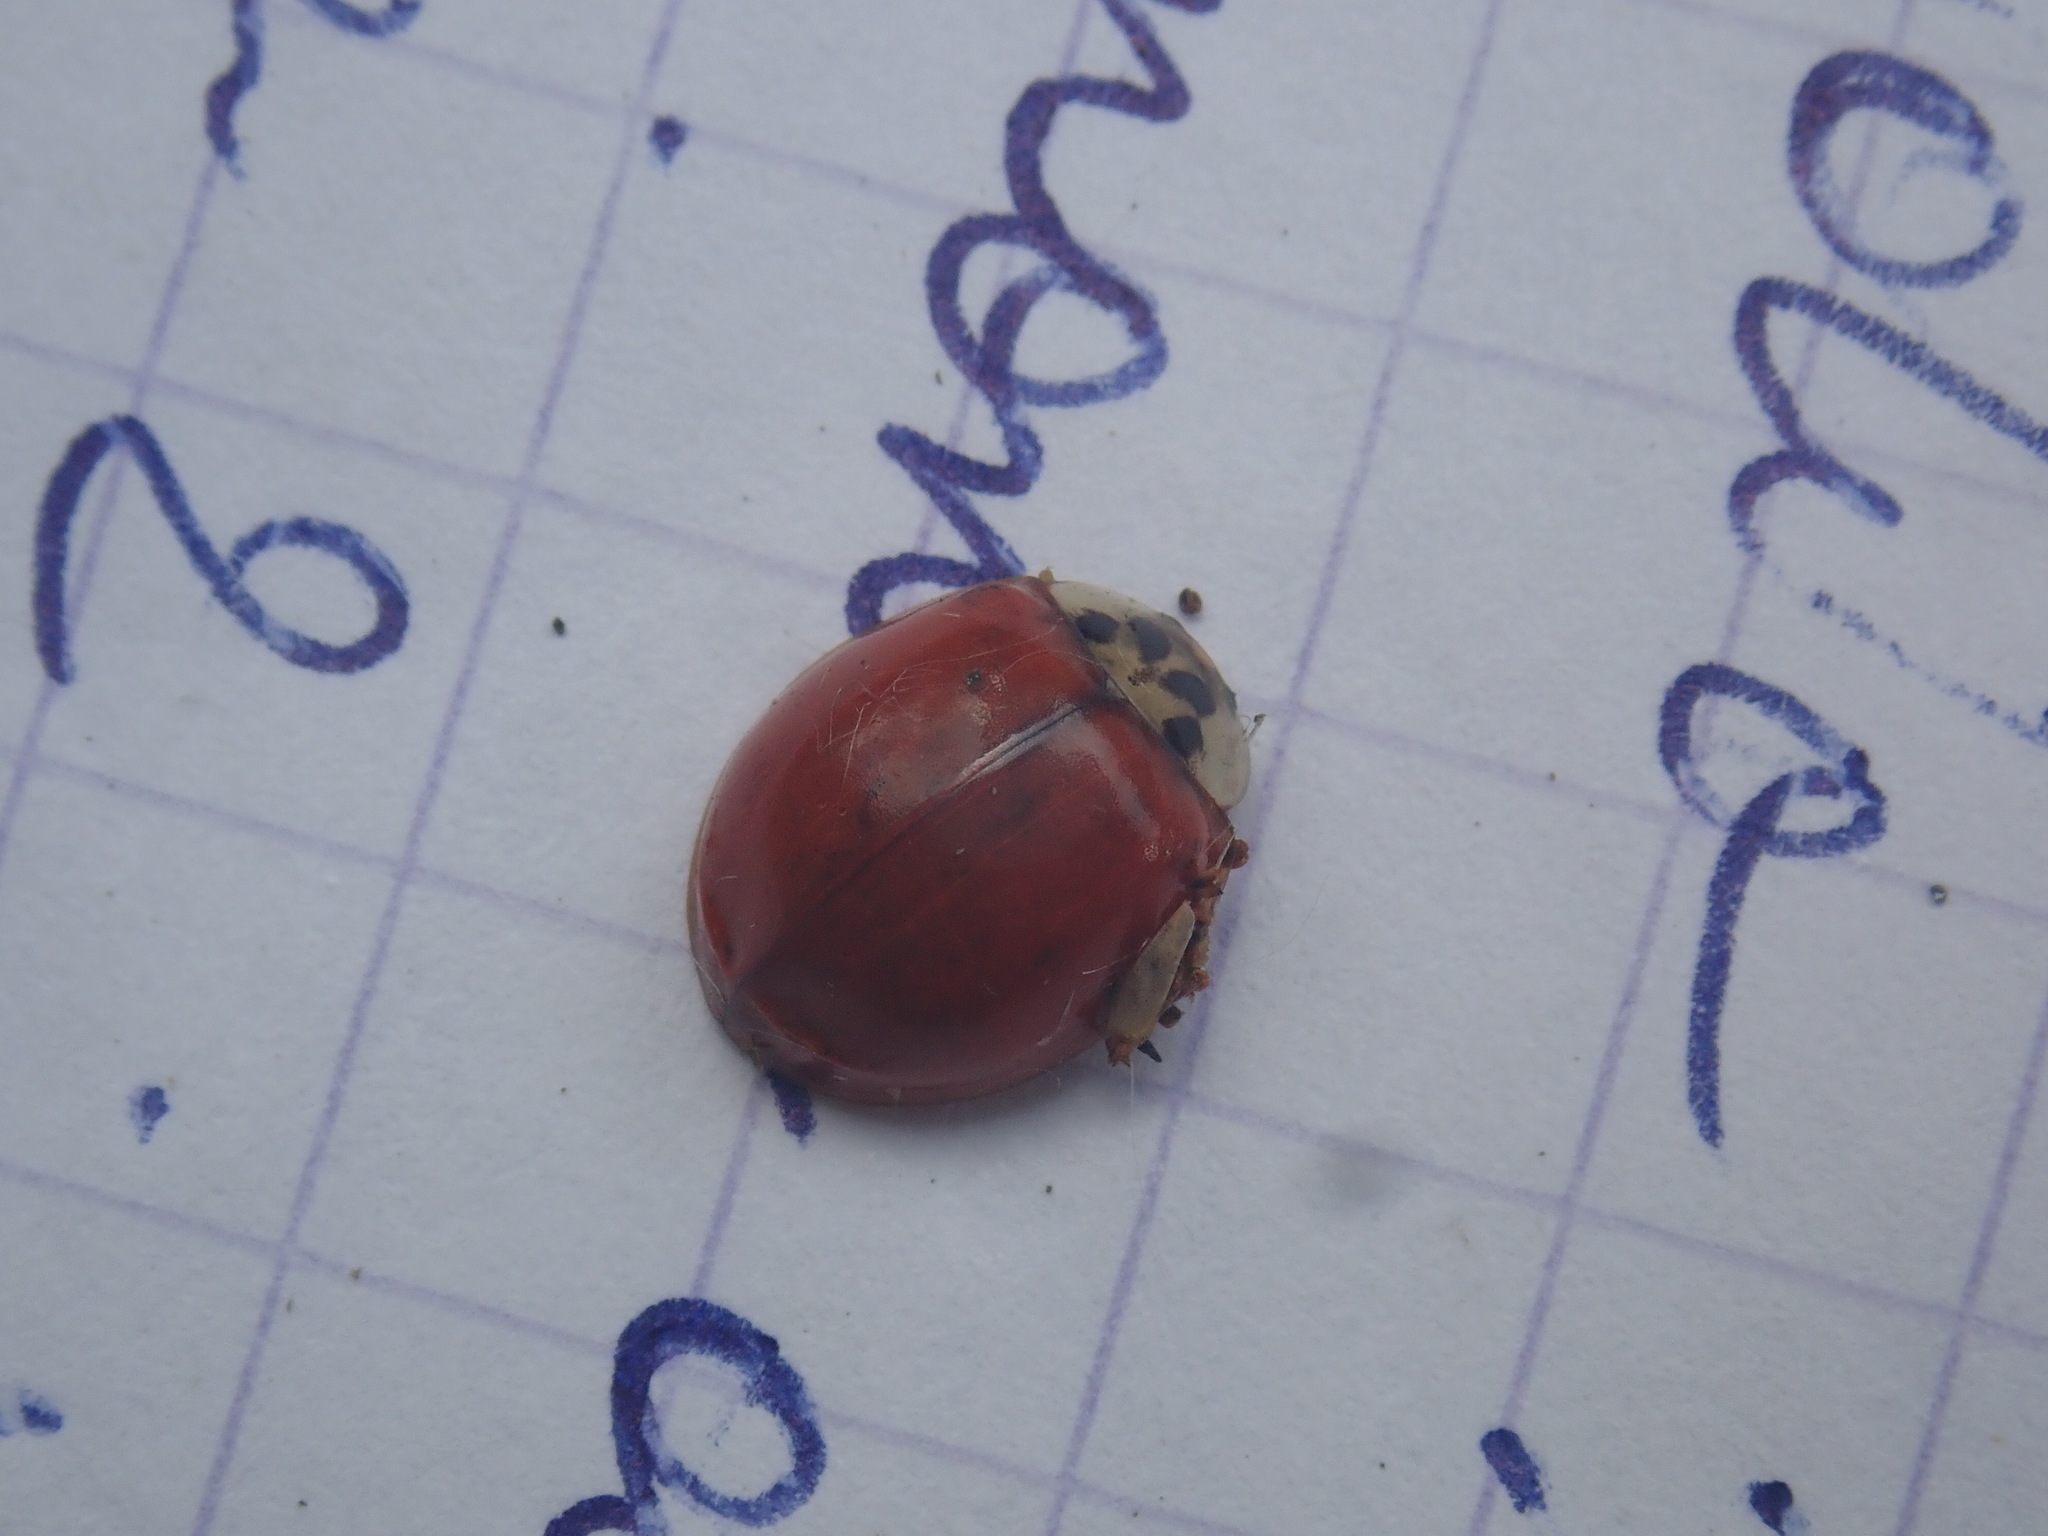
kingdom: Animalia
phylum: Arthropoda
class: Insecta
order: Coleoptera
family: Coccinellidae
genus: Harmonia
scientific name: Harmonia axyridis
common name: Harlequin ladybird
